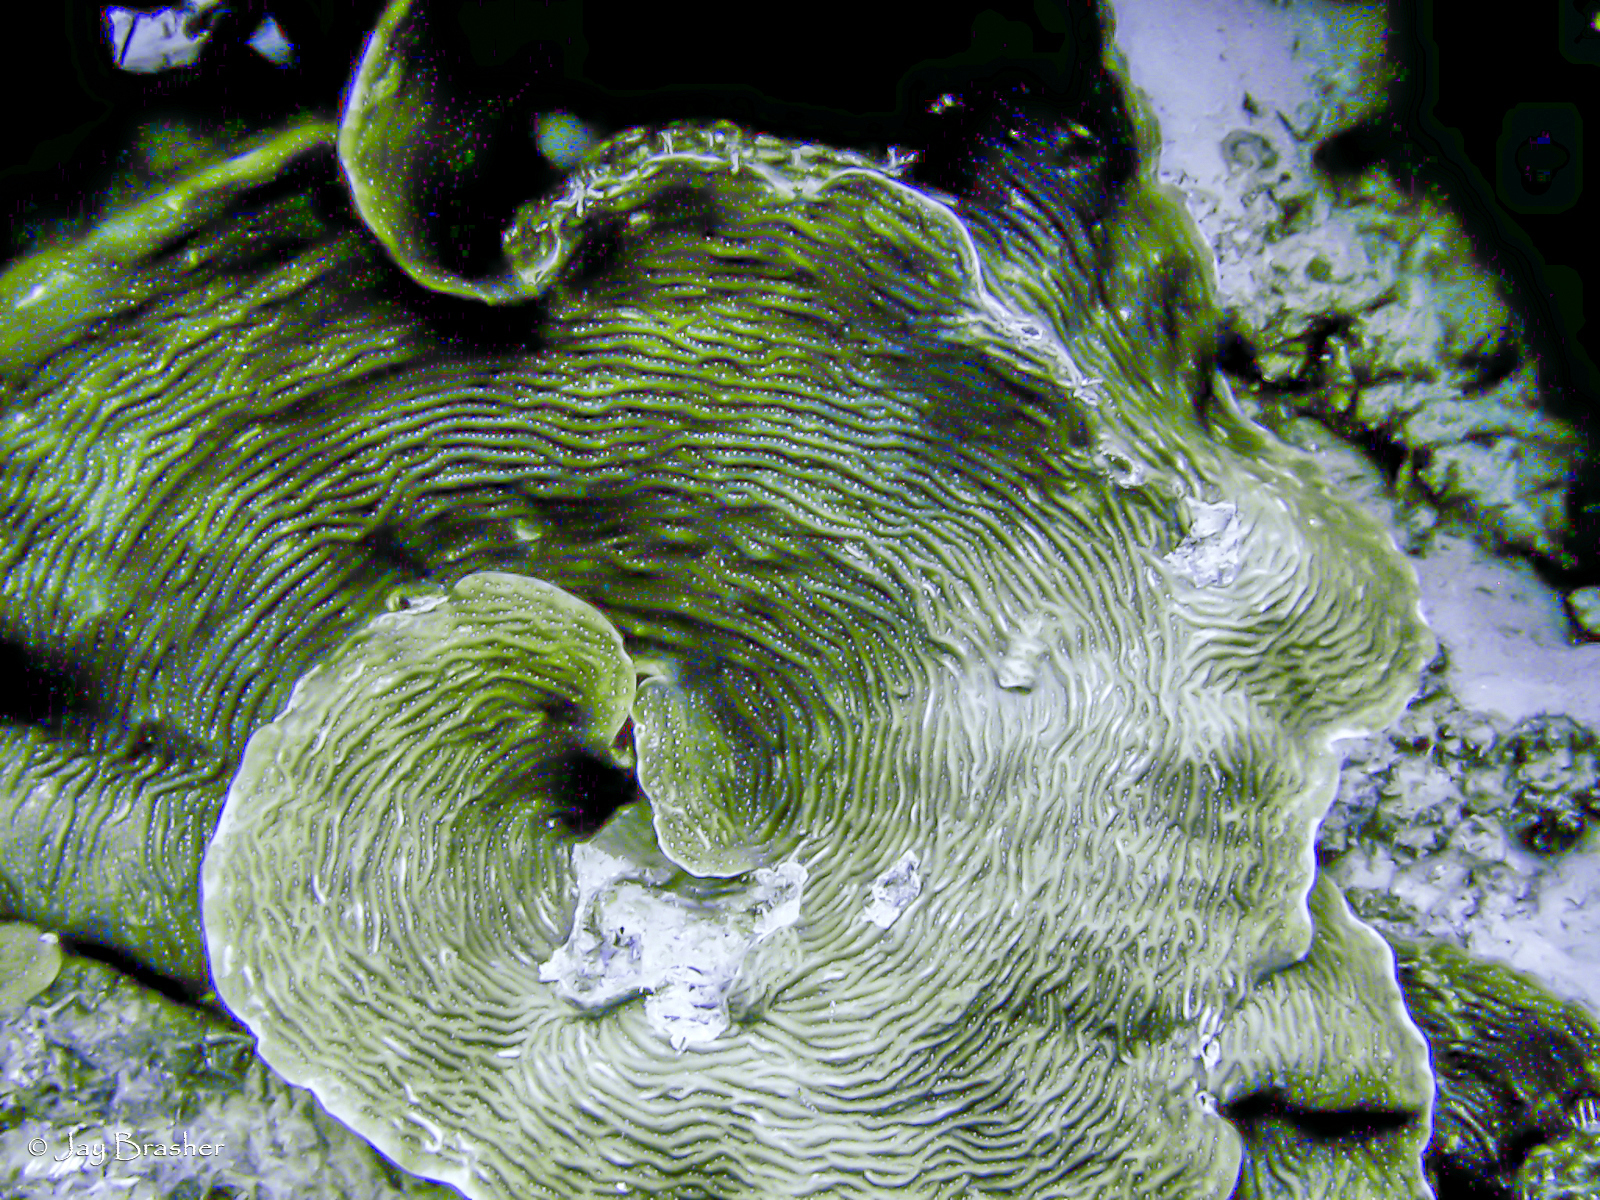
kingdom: Animalia
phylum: Cnidaria
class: Anthozoa
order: Scleractinia
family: Agariciidae
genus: Agaricia
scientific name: Agaricia lamarcki
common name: Lamarck's sheet coral
